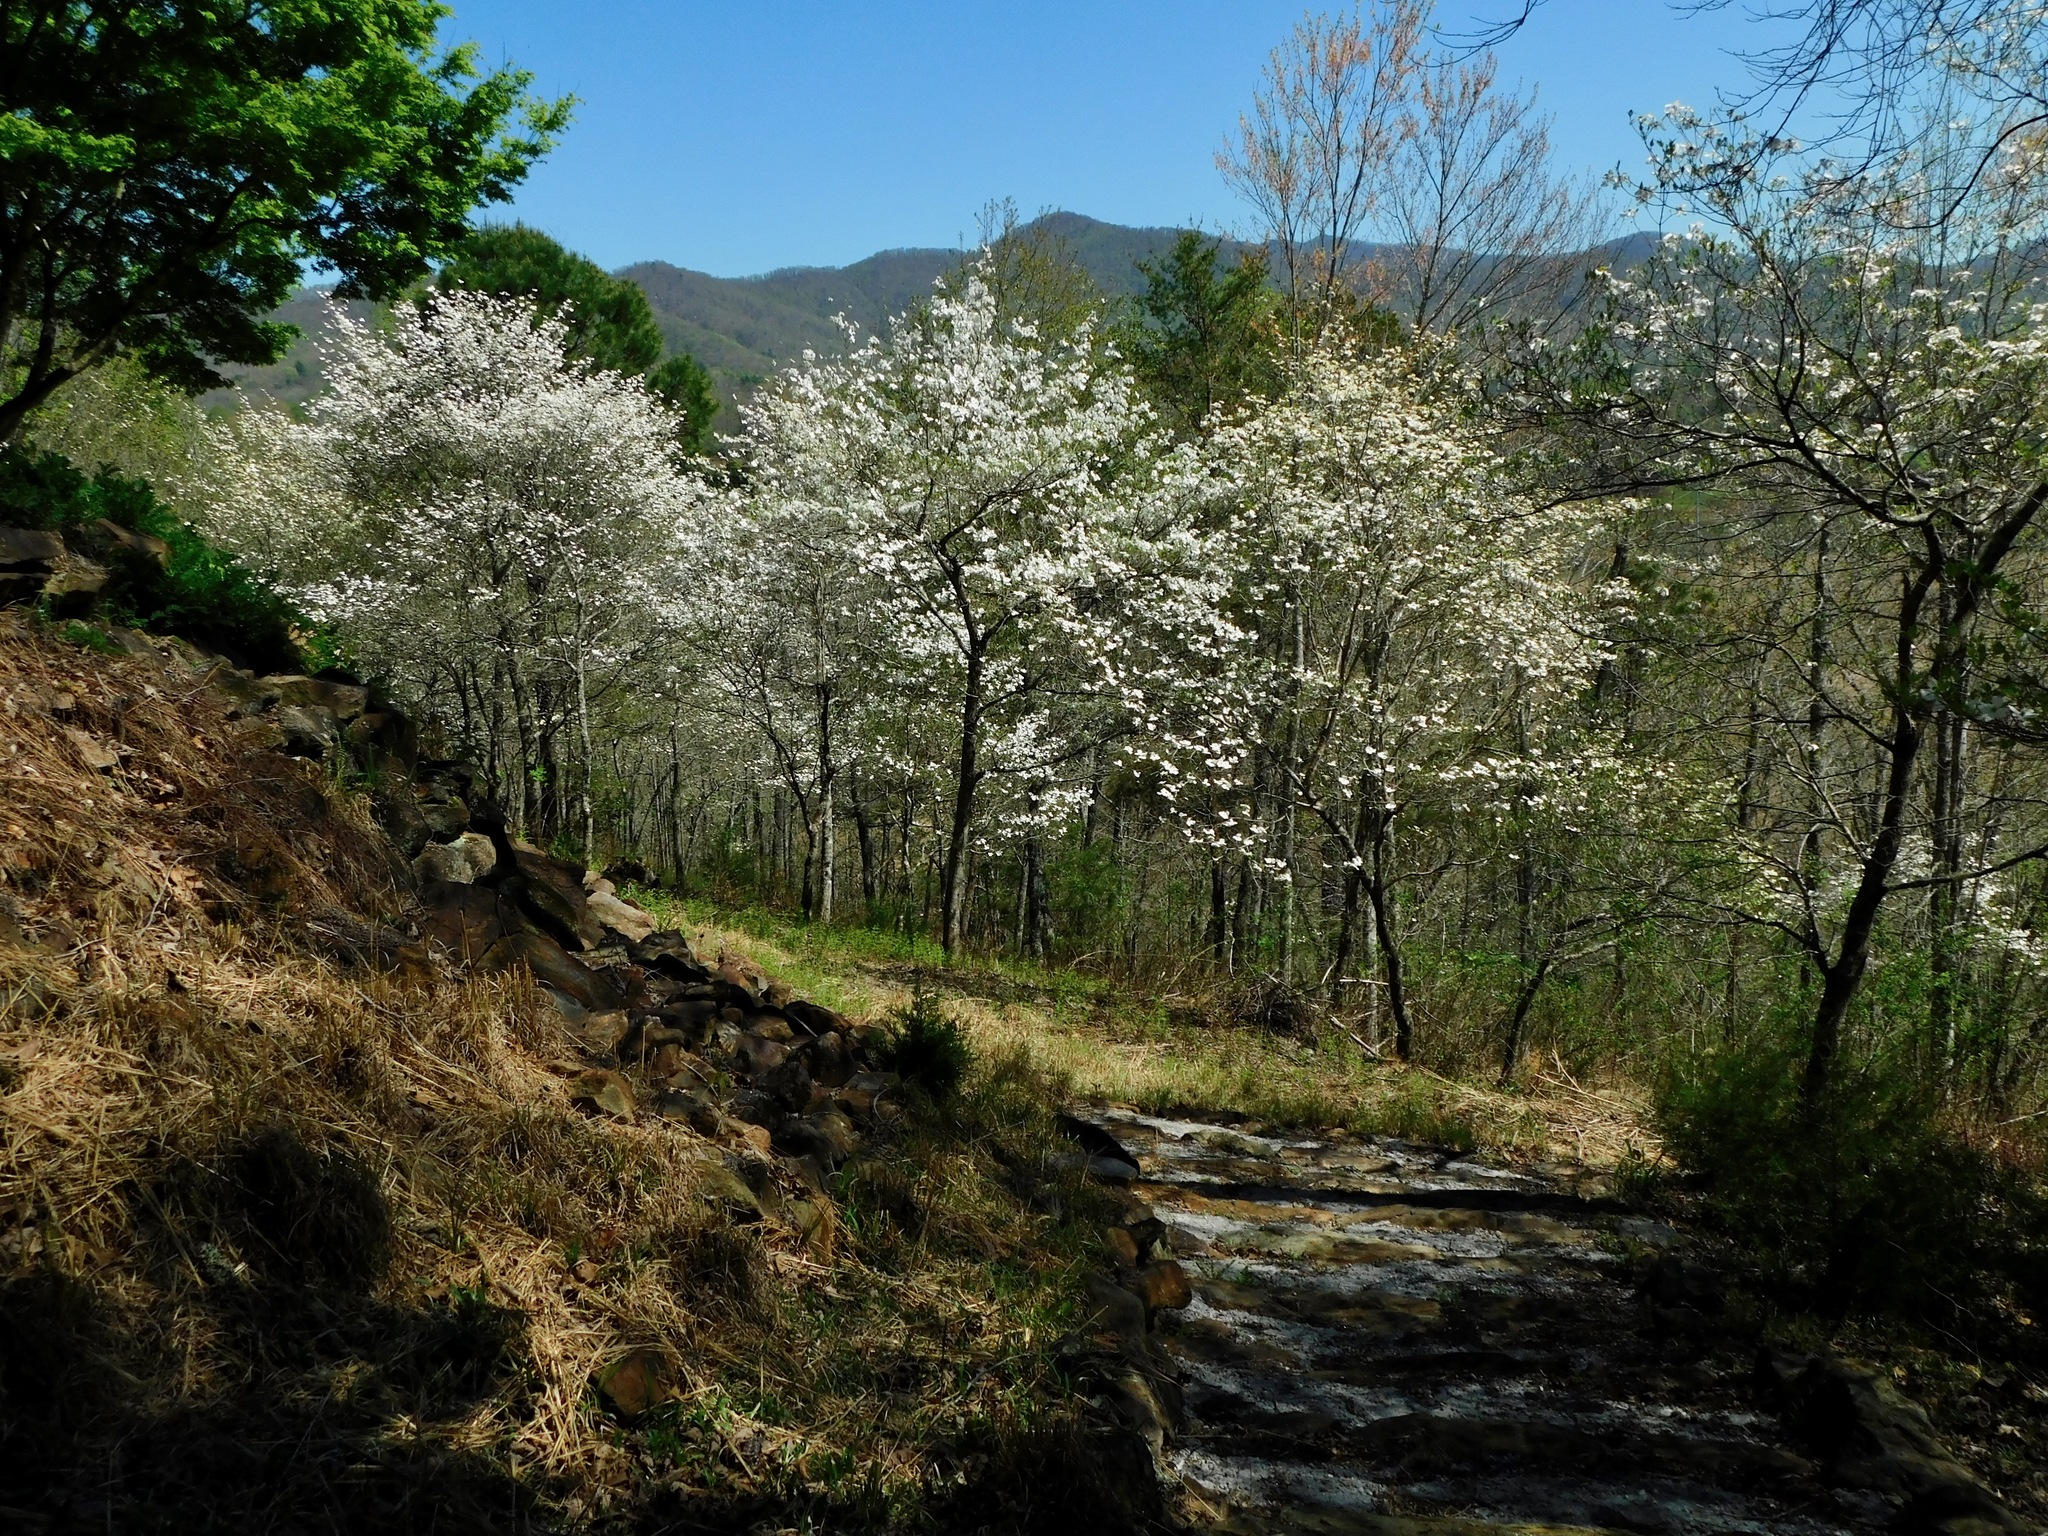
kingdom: Plantae
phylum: Tracheophyta
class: Magnoliopsida
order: Cornales
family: Cornaceae
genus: Cornus
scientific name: Cornus florida
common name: Flowering dogwood
